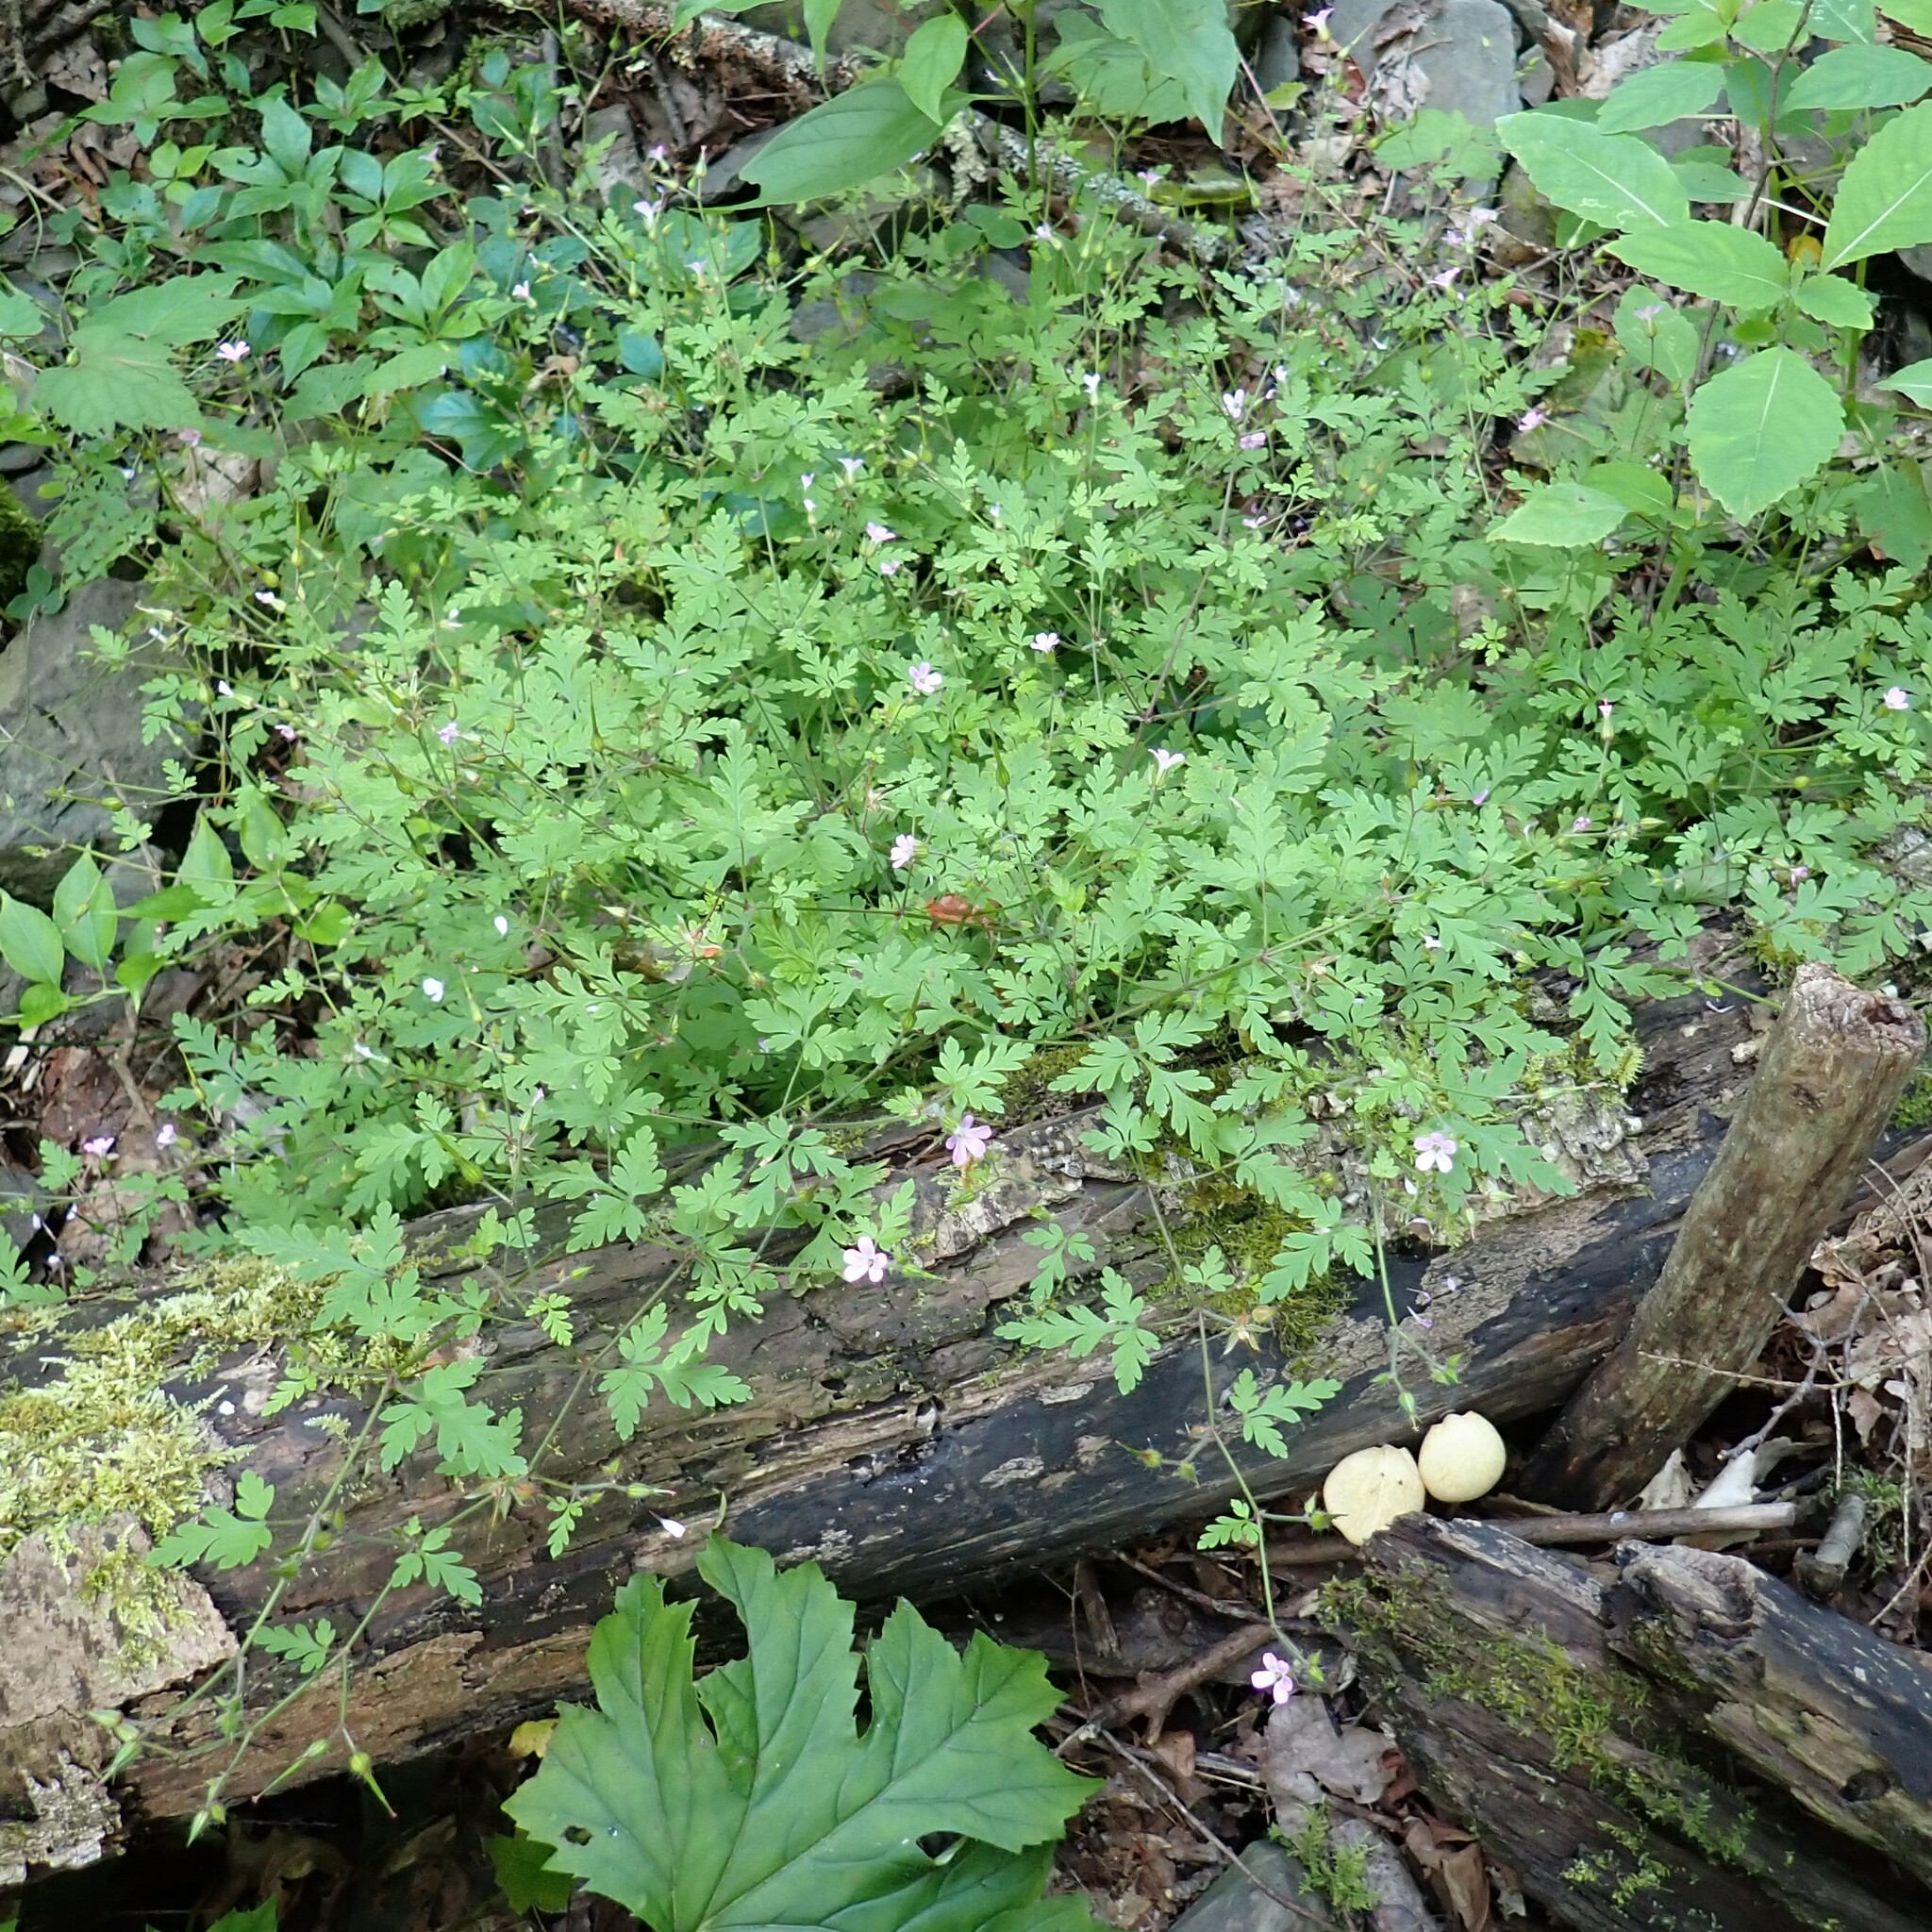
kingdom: Plantae
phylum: Tracheophyta
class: Magnoliopsida
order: Geraniales
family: Geraniaceae
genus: Geranium
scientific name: Geranium robertianum
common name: Herb-robert
